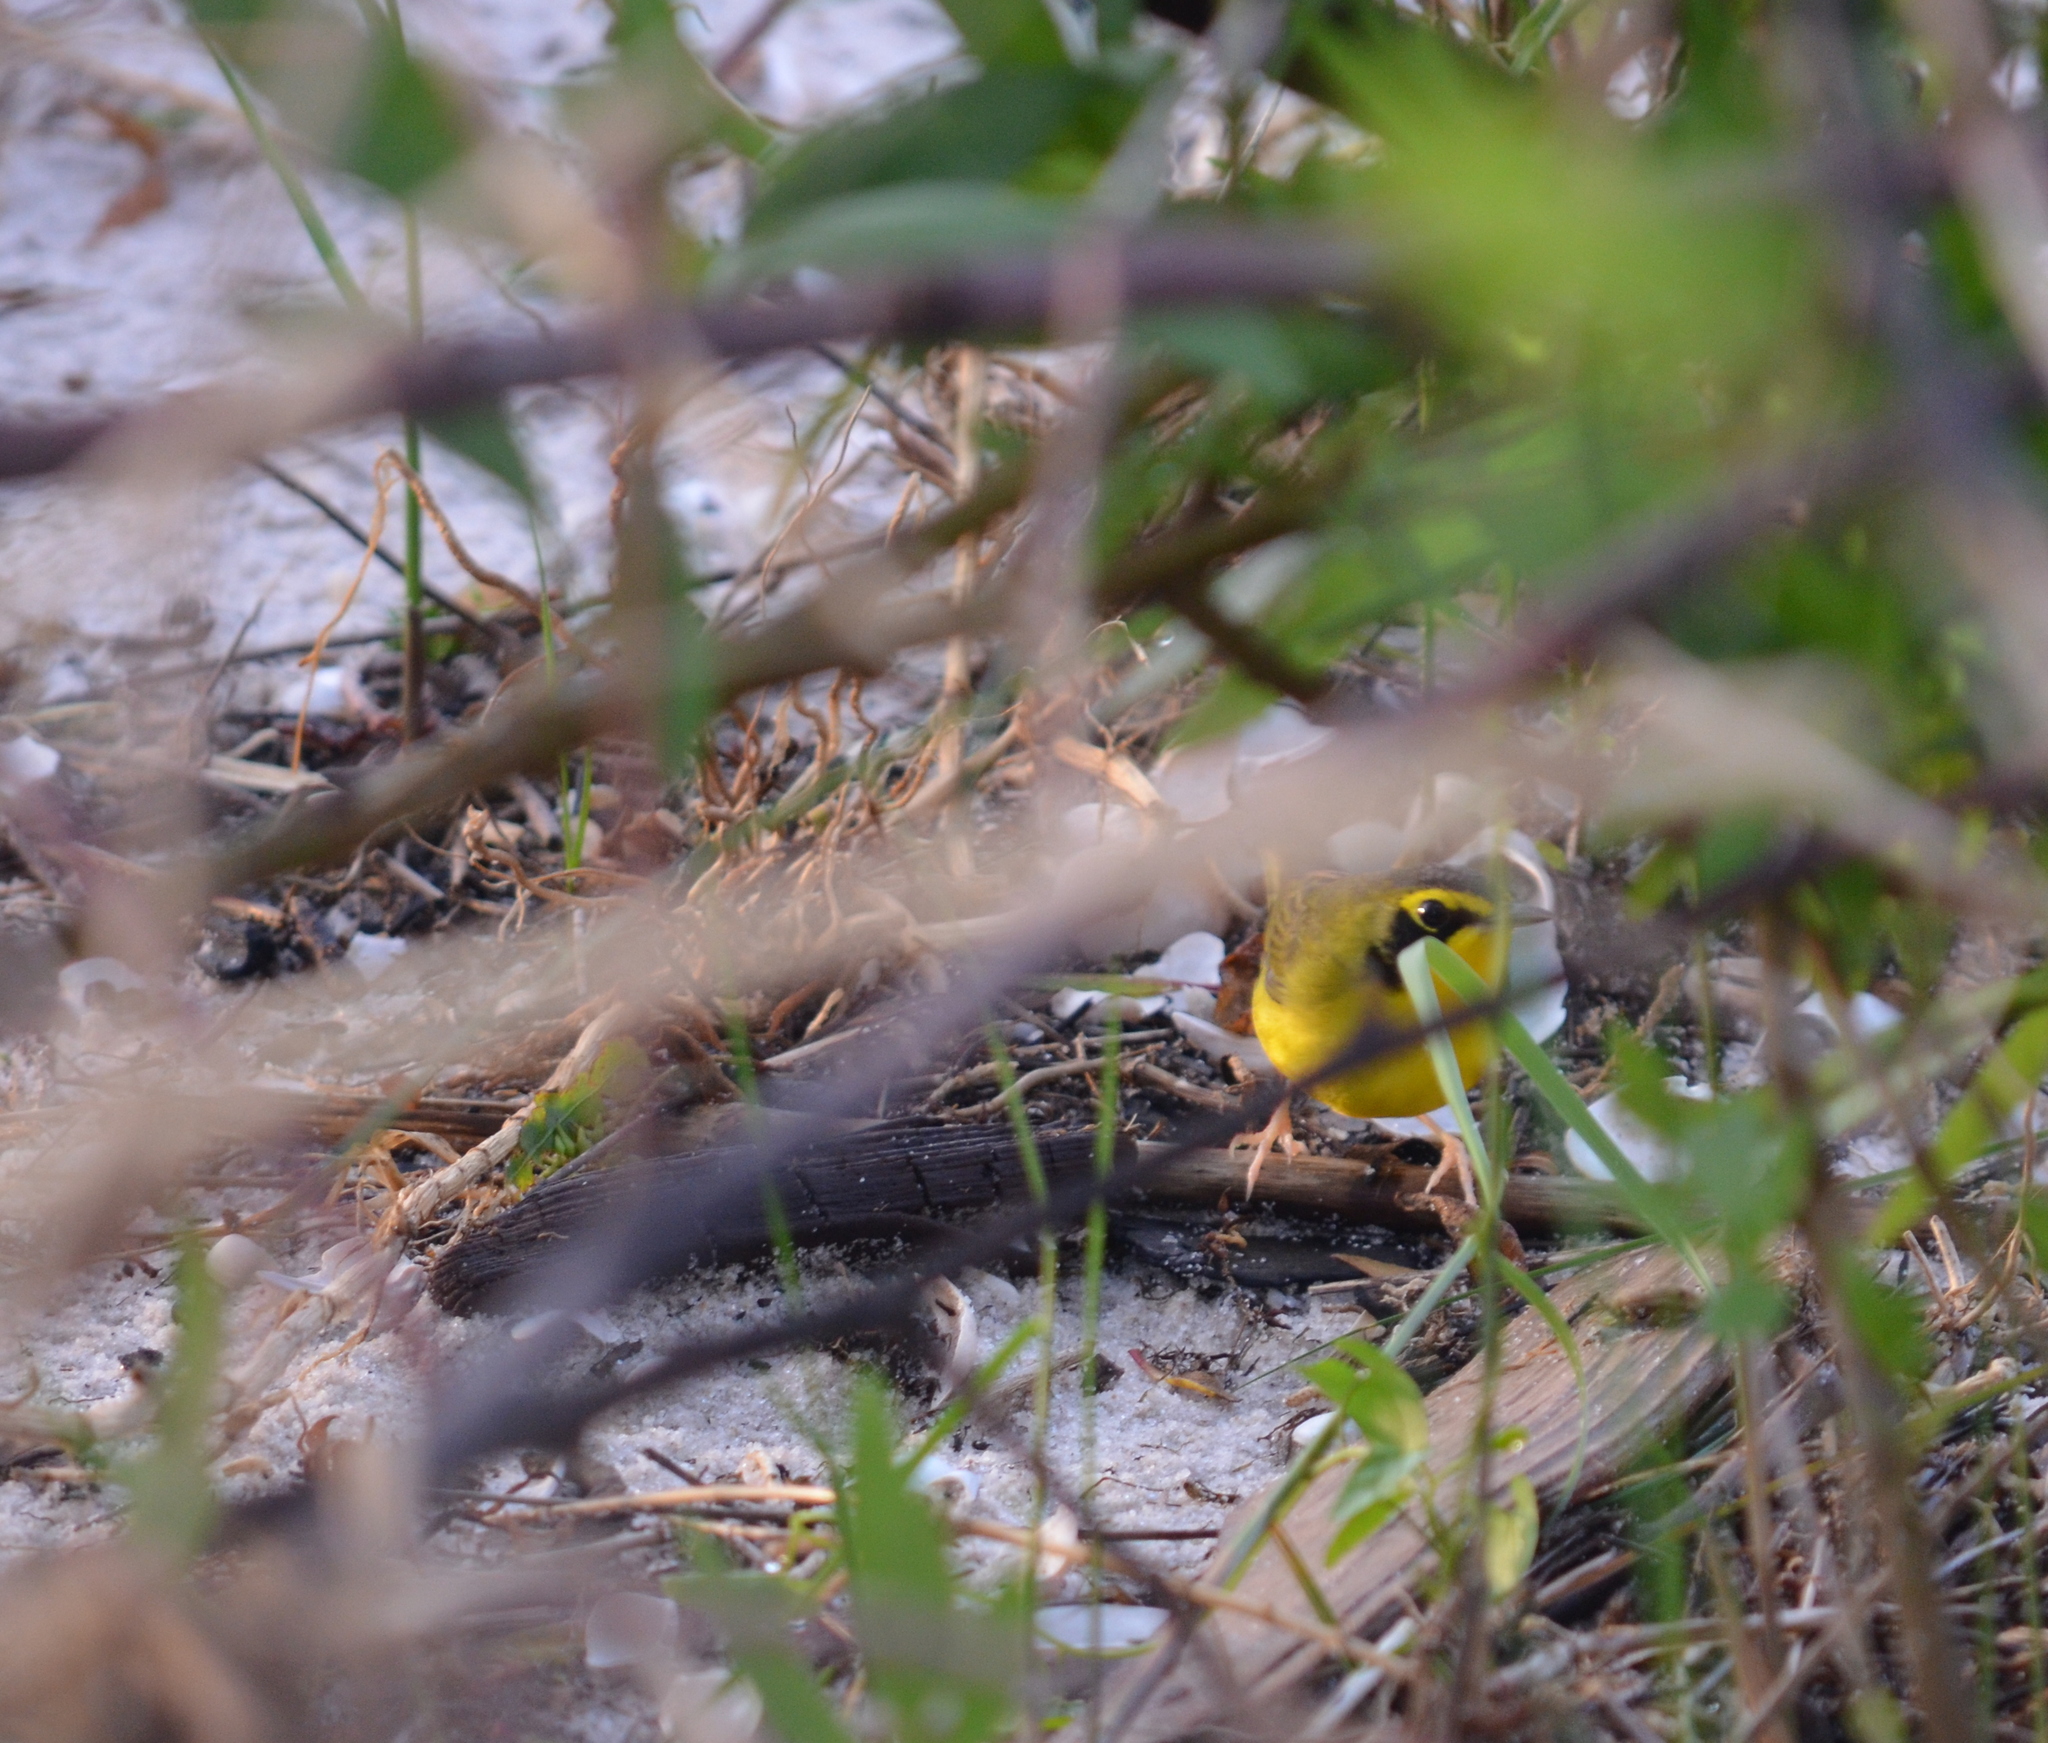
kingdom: Animalia
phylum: Chordata
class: Aves
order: Passeriformes
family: Parulidae
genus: Geothlypis
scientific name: Geothlypis formosa
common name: Kentucky warbler
